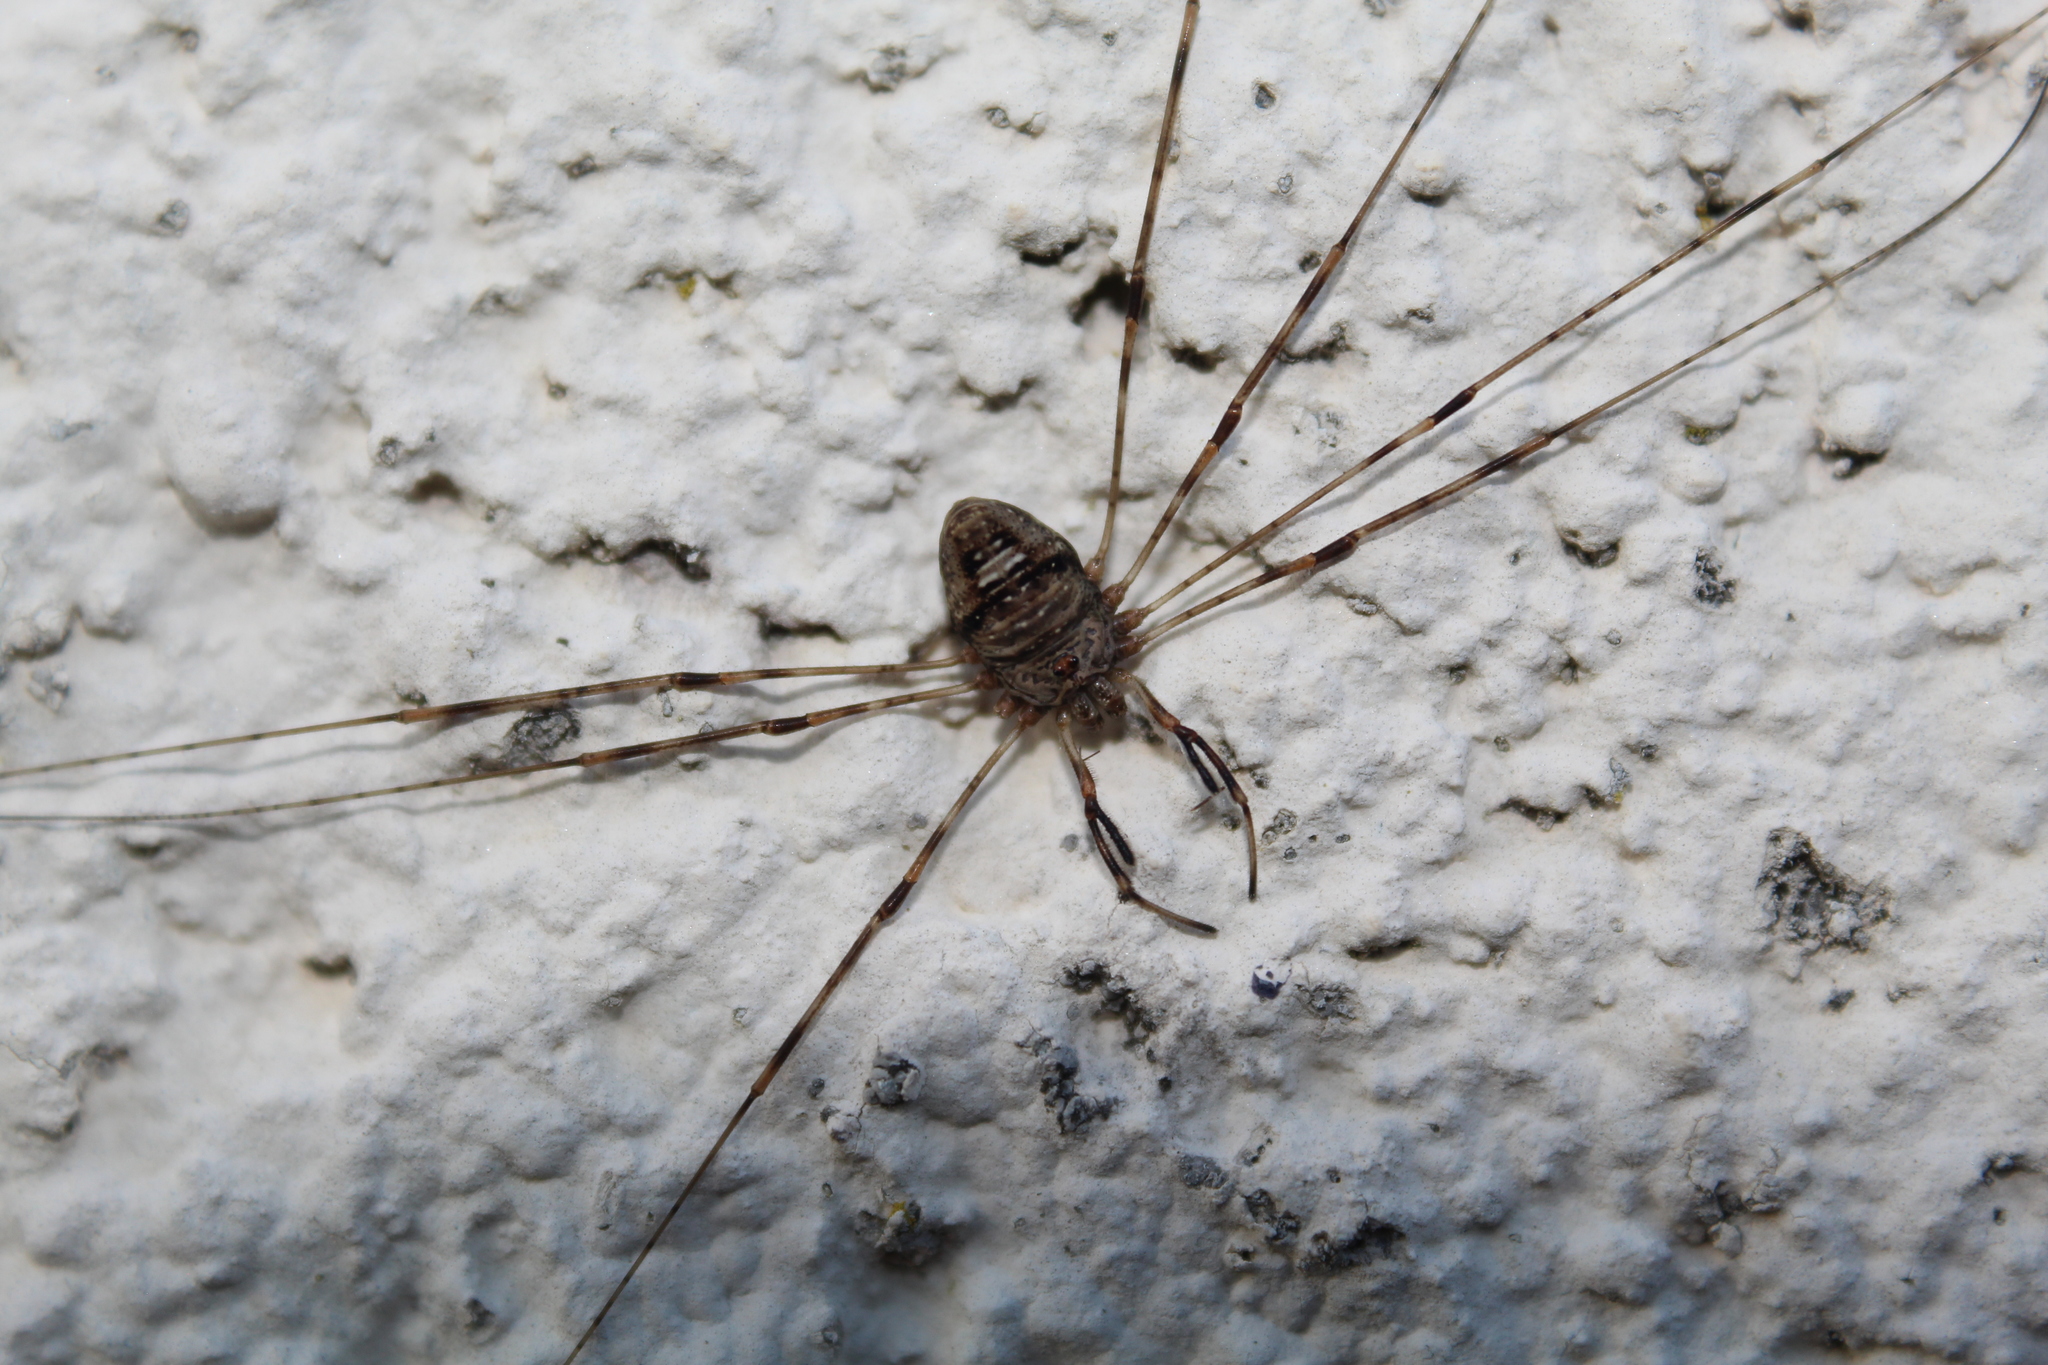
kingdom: Animalia
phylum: Arthropoda
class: Arachnida
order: Opiliones
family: Phalangiidae
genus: Dicranopalpus
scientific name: Dicranopalpus ramosus
